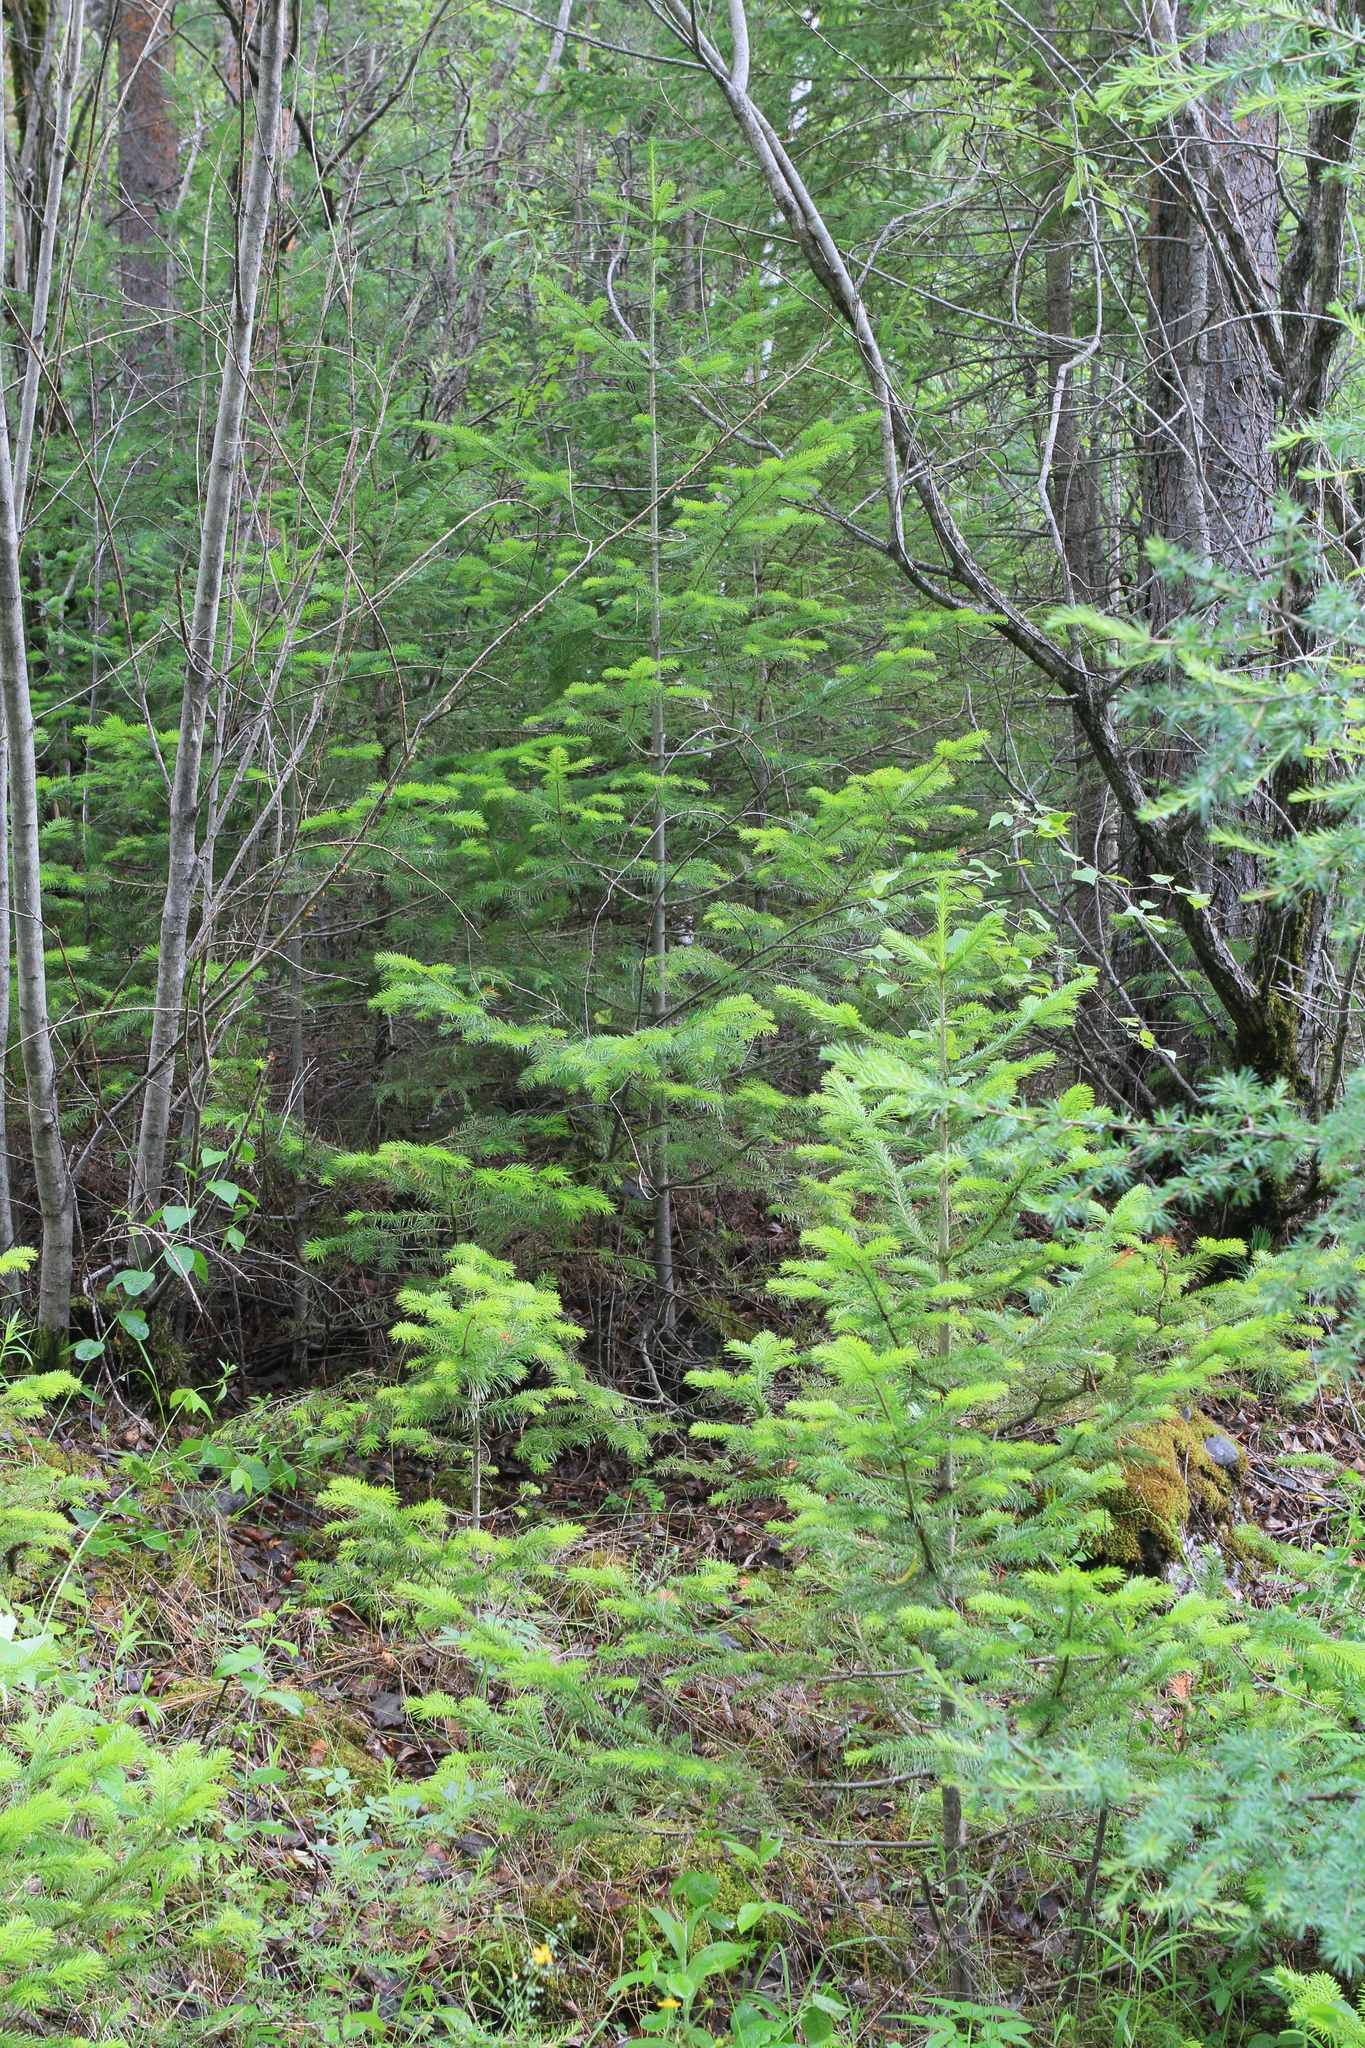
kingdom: Plantae
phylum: Tracheophyta
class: Pinopsida
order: Pinales
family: Pinaceae
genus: Abies
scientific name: Abies sibirica
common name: Siberian fir
